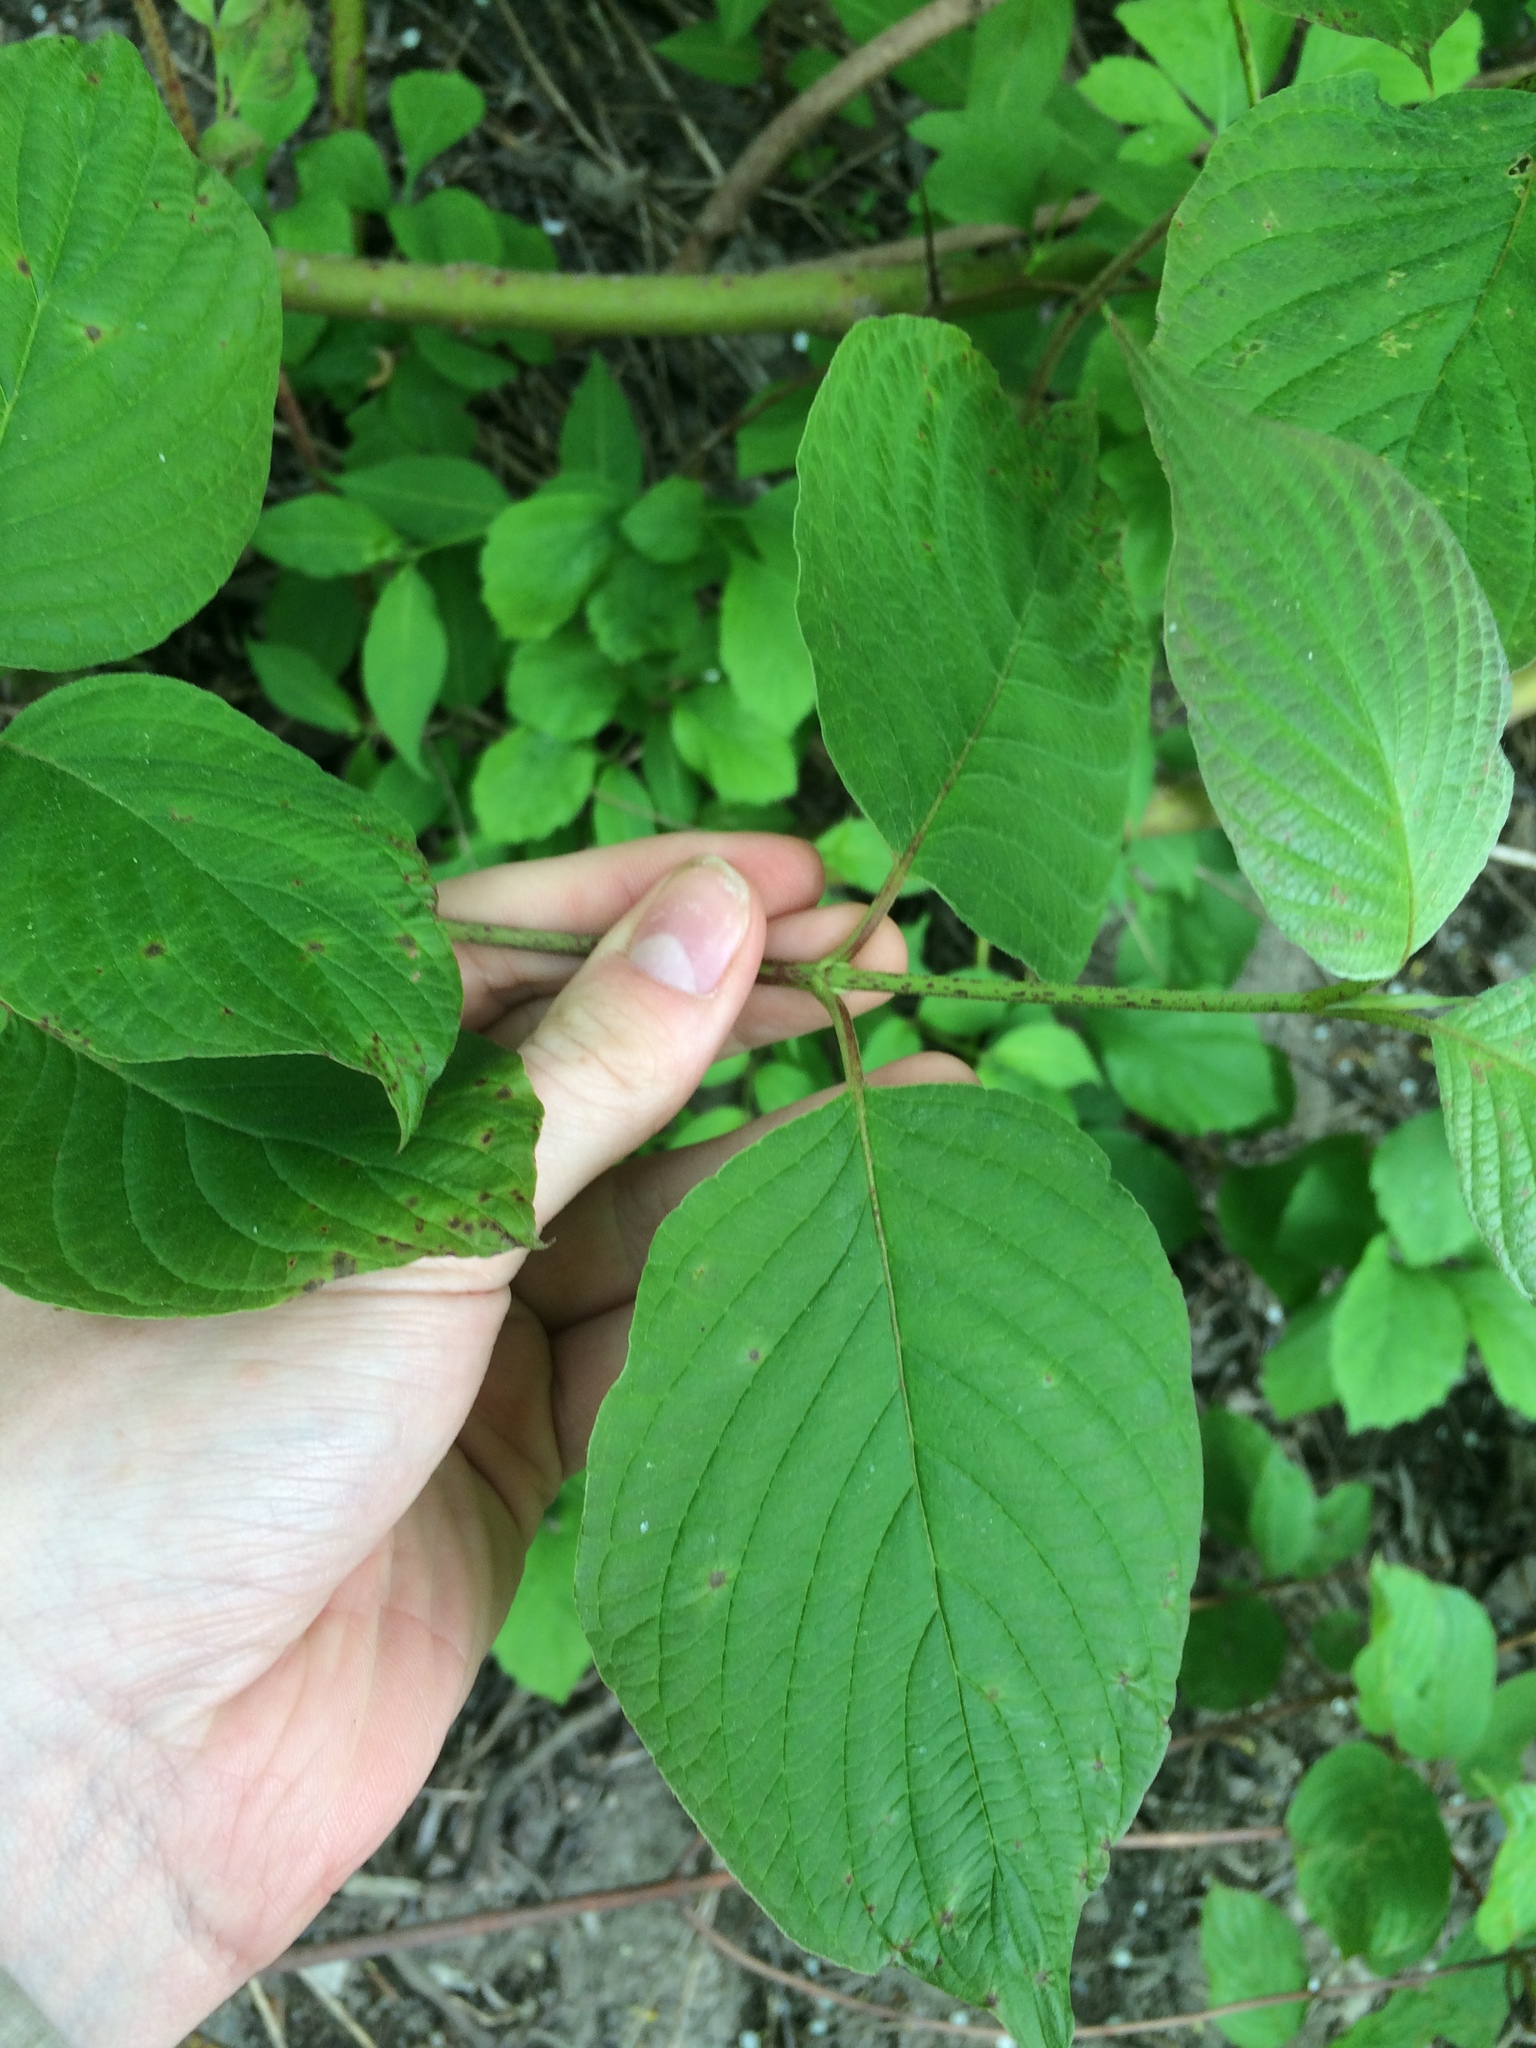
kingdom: Plantae
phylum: Tracheophyta
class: Magnoliopsida
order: Cornales
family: Cornaceae
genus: Cornus
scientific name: Cornus rugosa
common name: Round-leaf dogwood
